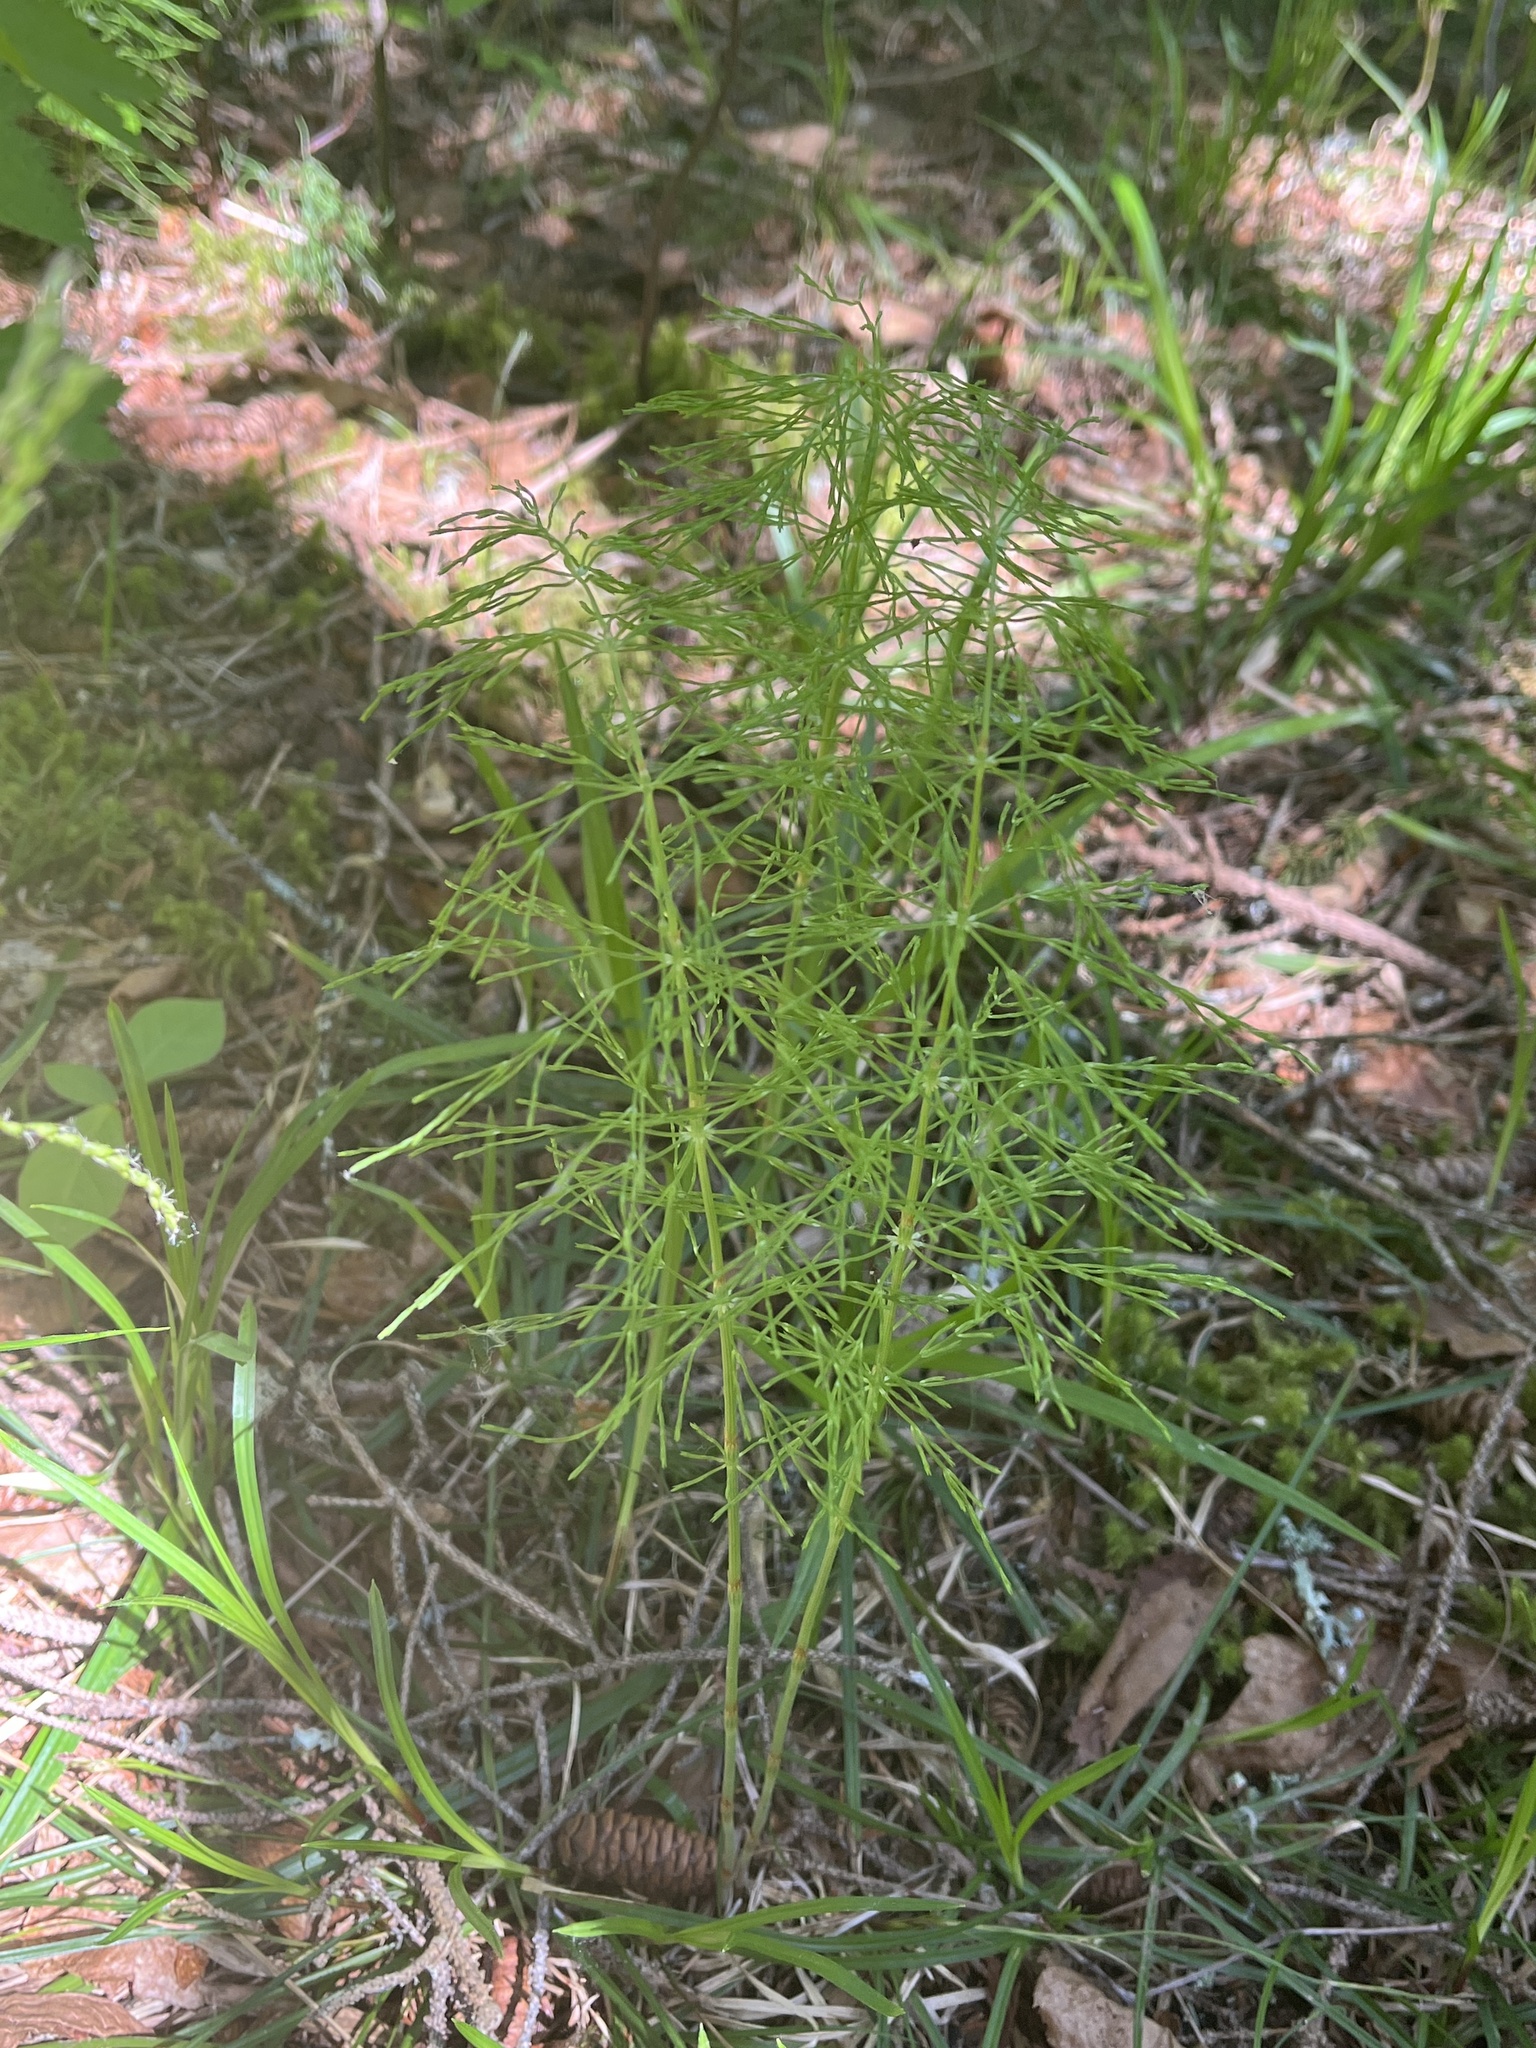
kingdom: Plantae
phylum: Tracheophyta
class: Polypodiopsida
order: Equisetales
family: Equisetaceae
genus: Equisetum
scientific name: Equisetum sylvaticum
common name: Wood horsetail
